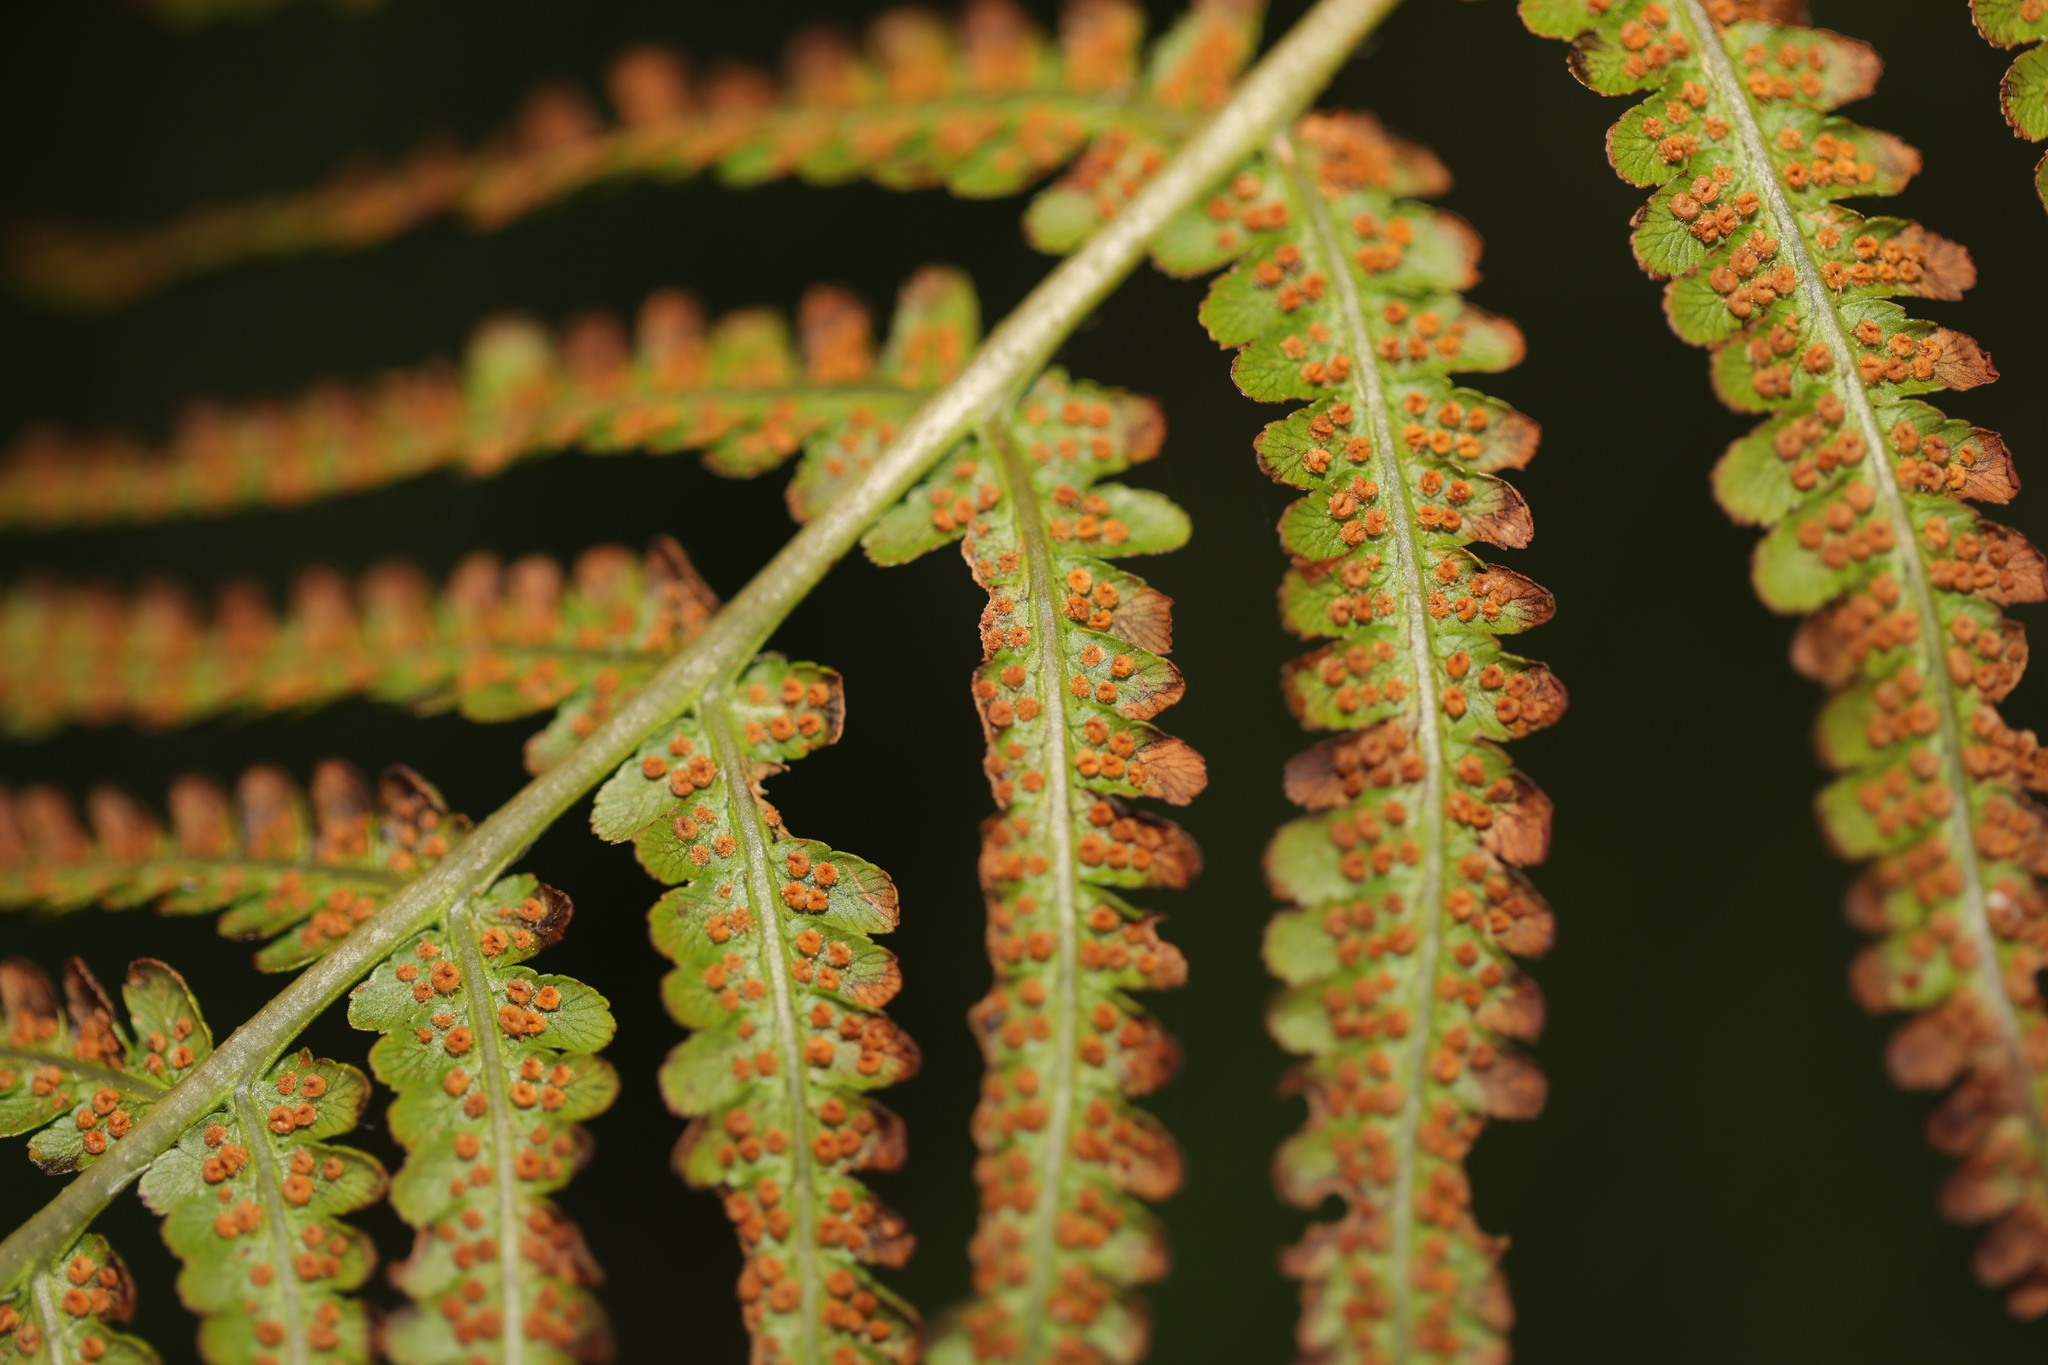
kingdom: Plantae
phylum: Tracheophyta
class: Polypodiopsida
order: Polypodiales
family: Dryopteridaceae
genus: Dryopteris
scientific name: Dryopteris filix-mas
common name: Male fern
